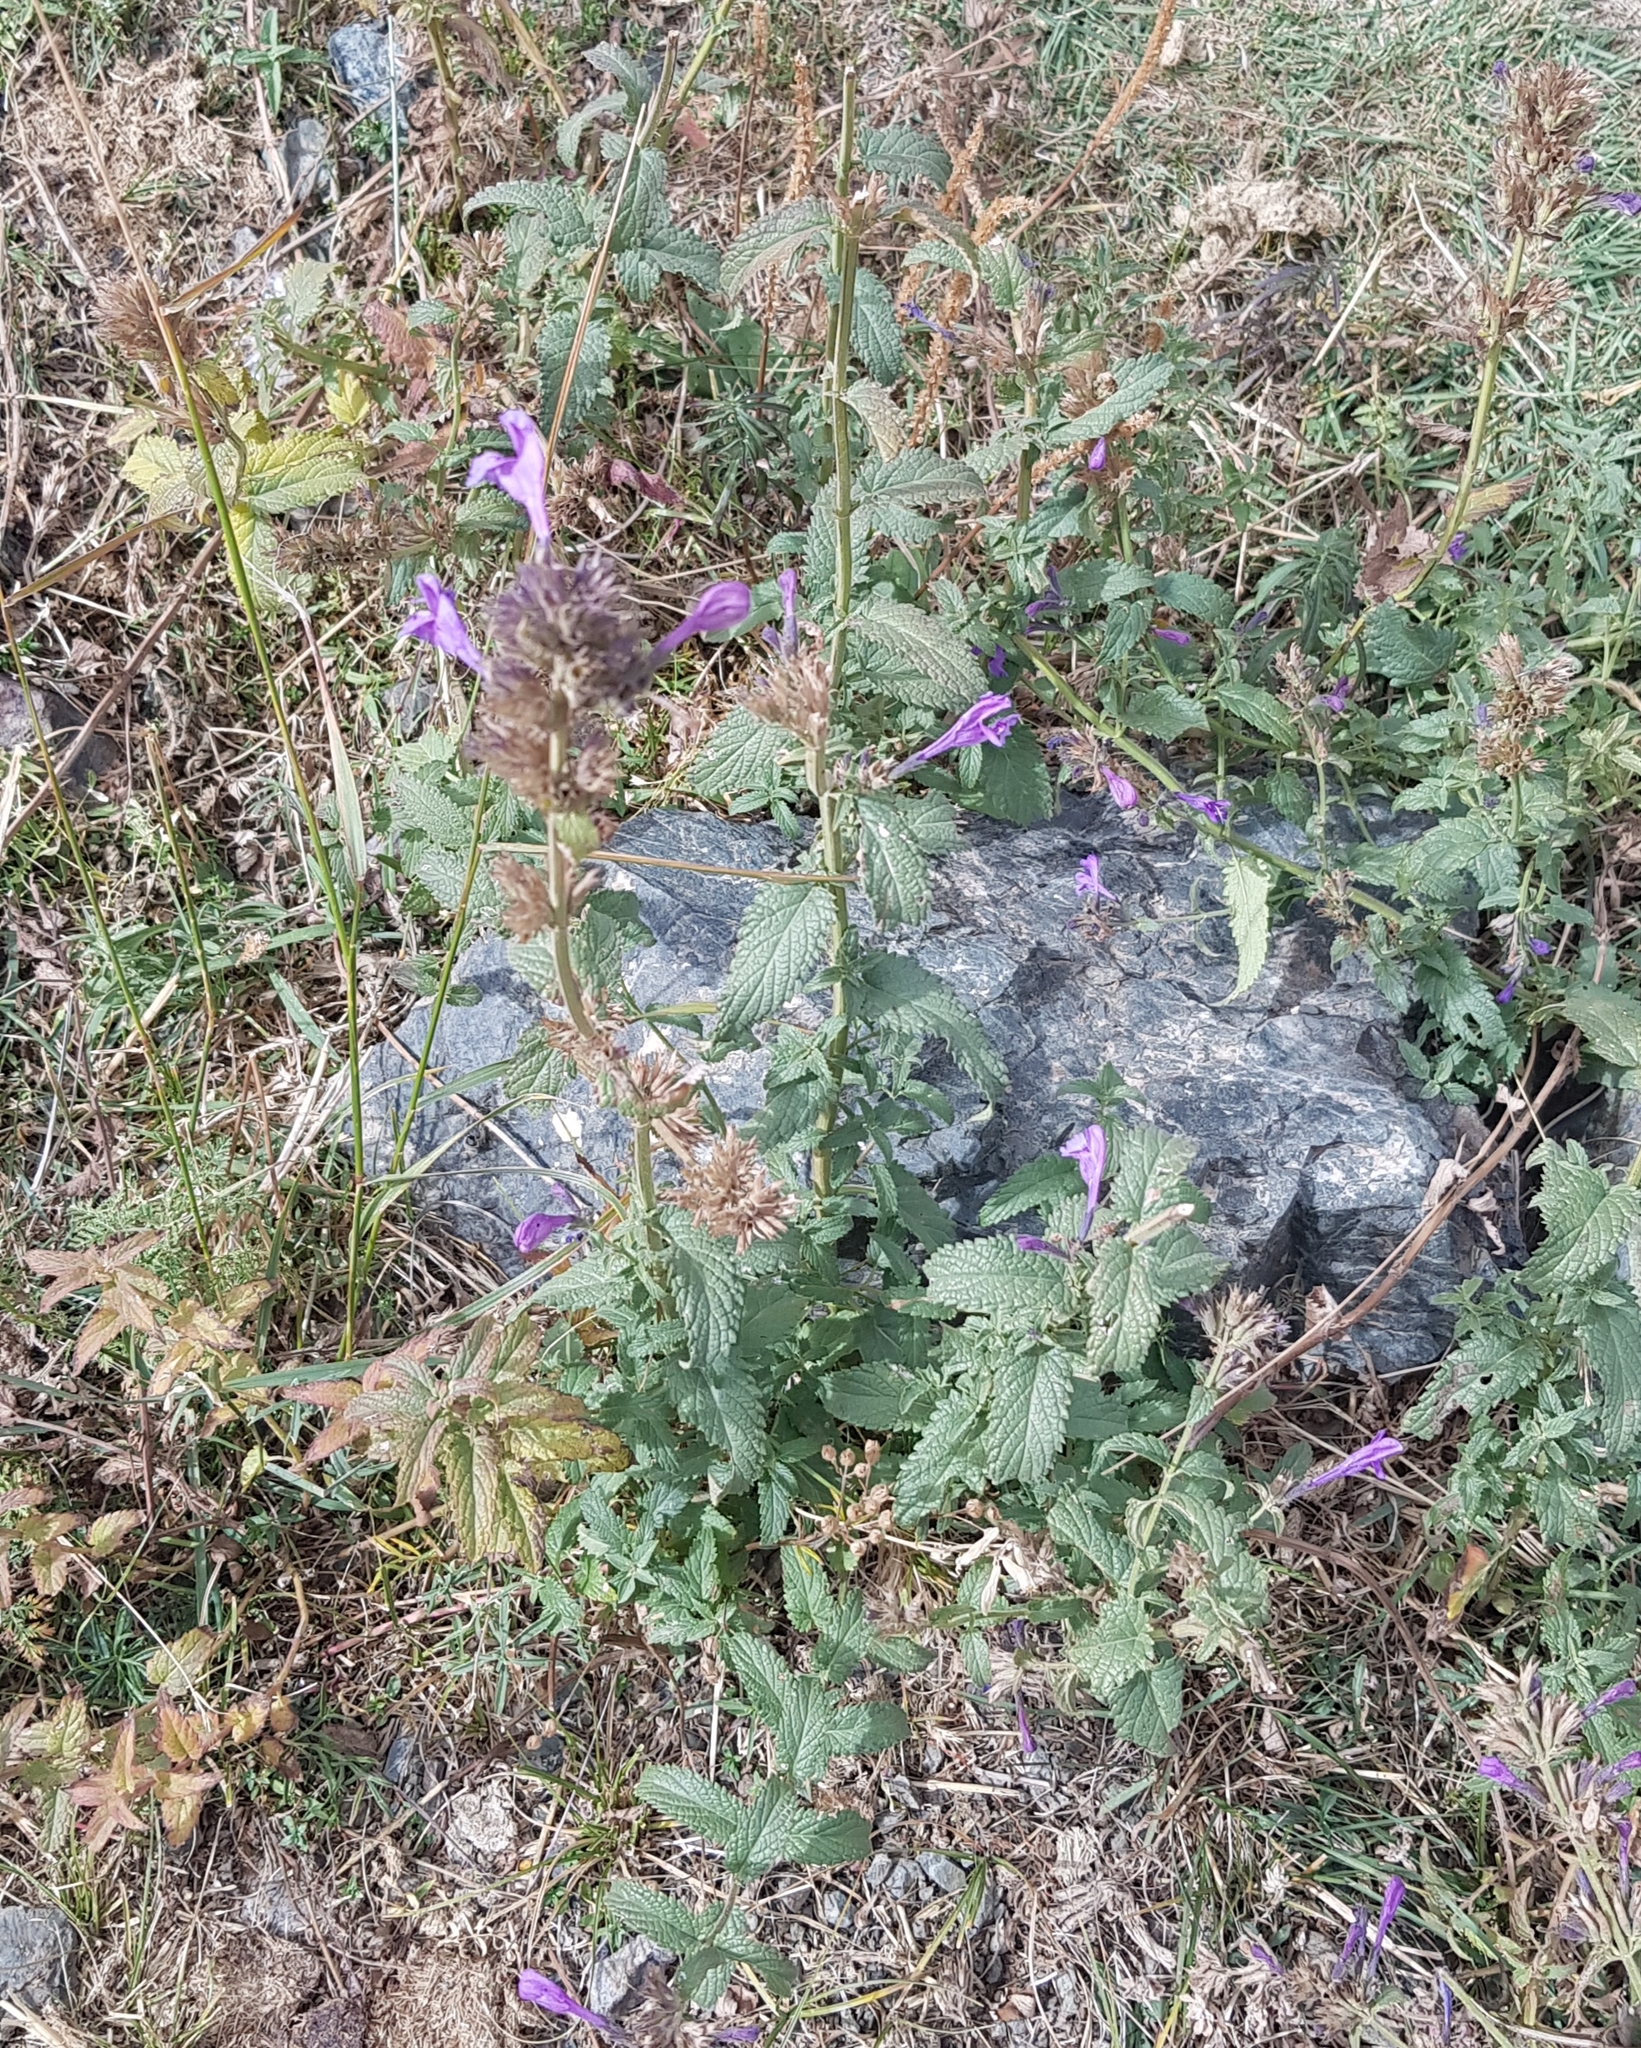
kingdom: Plantae
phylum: Tracheophyta
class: Magnoliopsida
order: Lamiales
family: Lamiaceae
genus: Nepeta
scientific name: Nepeta sibirica
